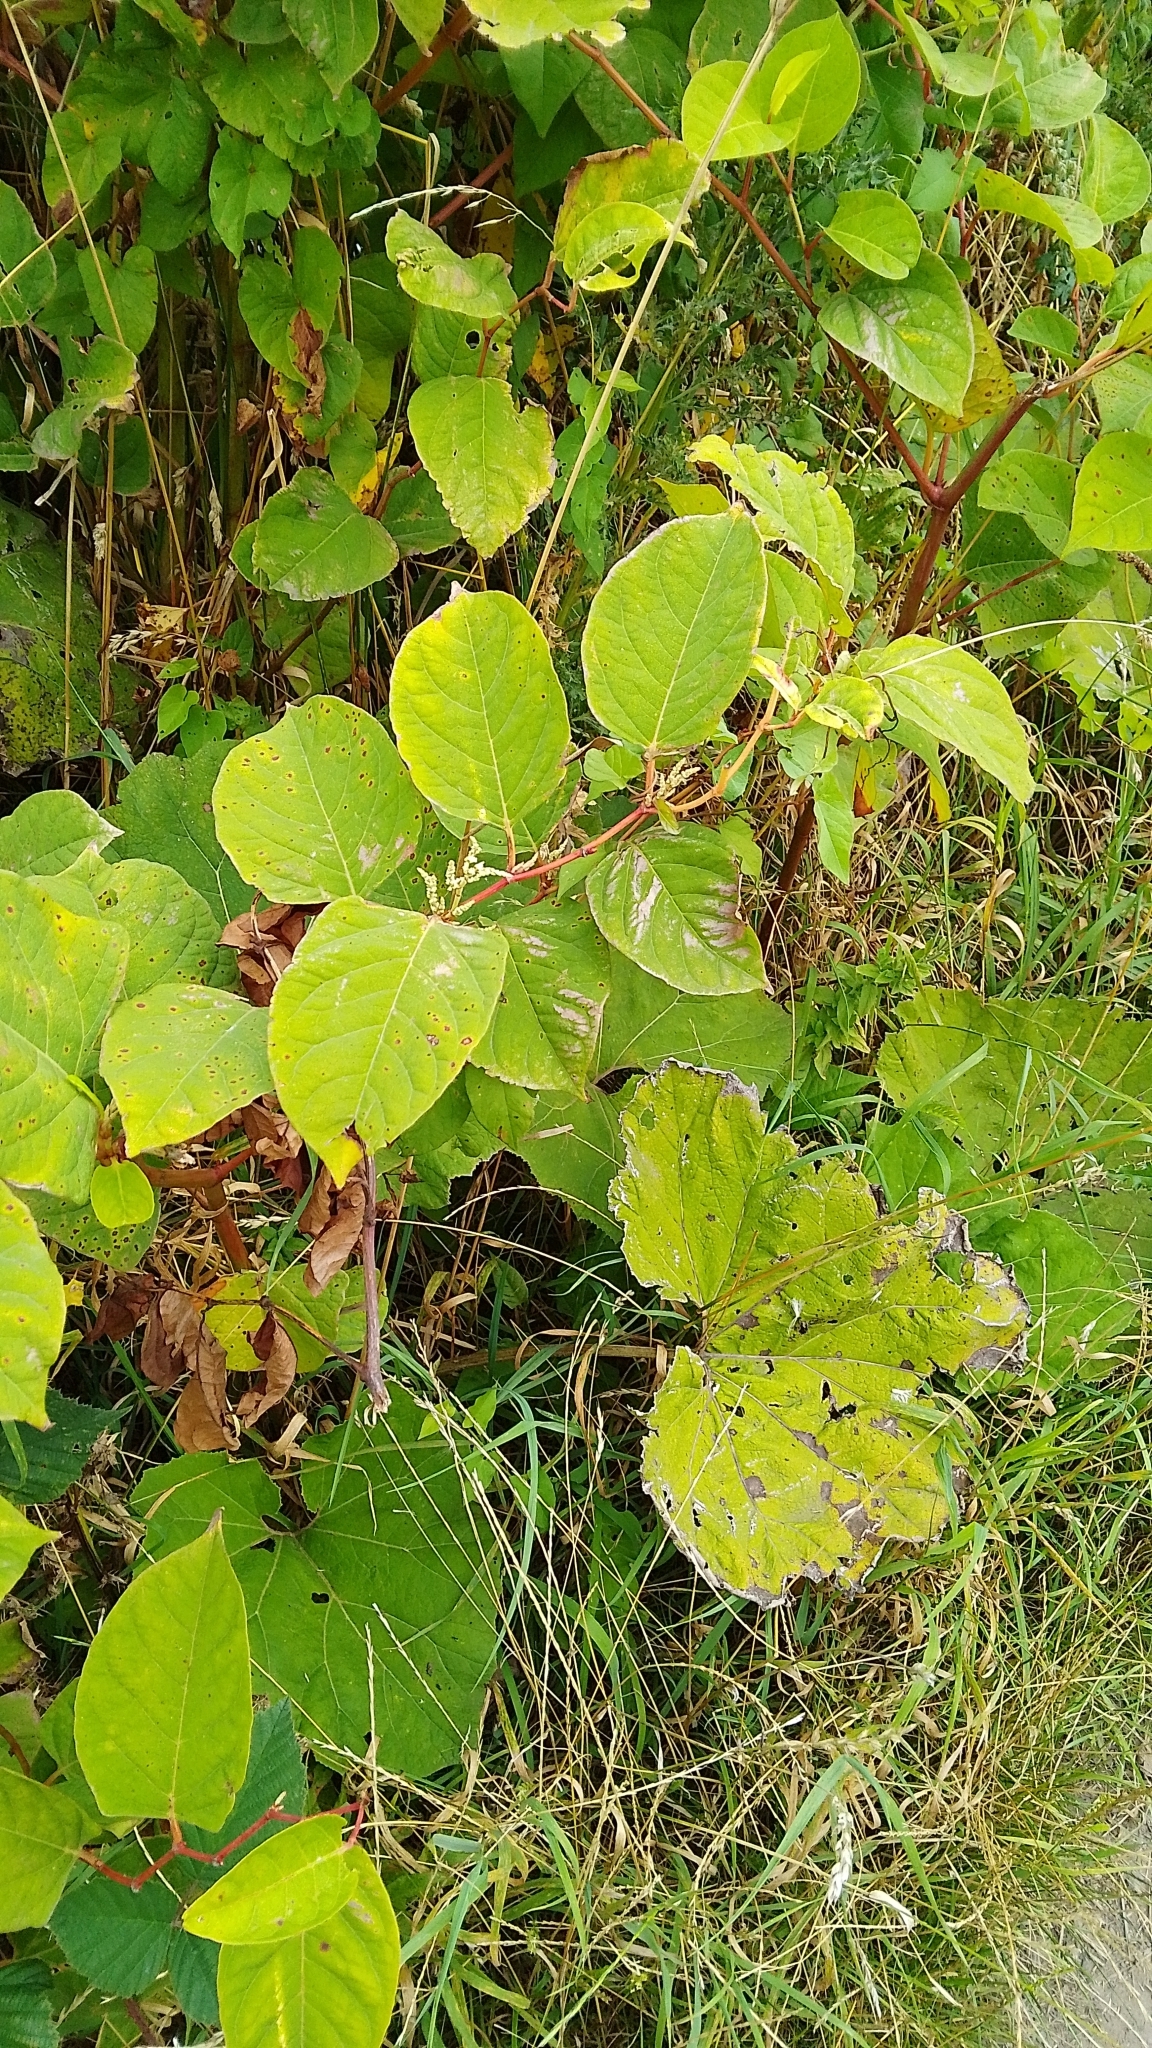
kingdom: Plantae
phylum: Tracheophyta
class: Magnoliopsida
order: Caryophyllales
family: Polygonaceae
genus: Reynoutria
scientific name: Reynoutria japonica
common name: Japanese knotweed
